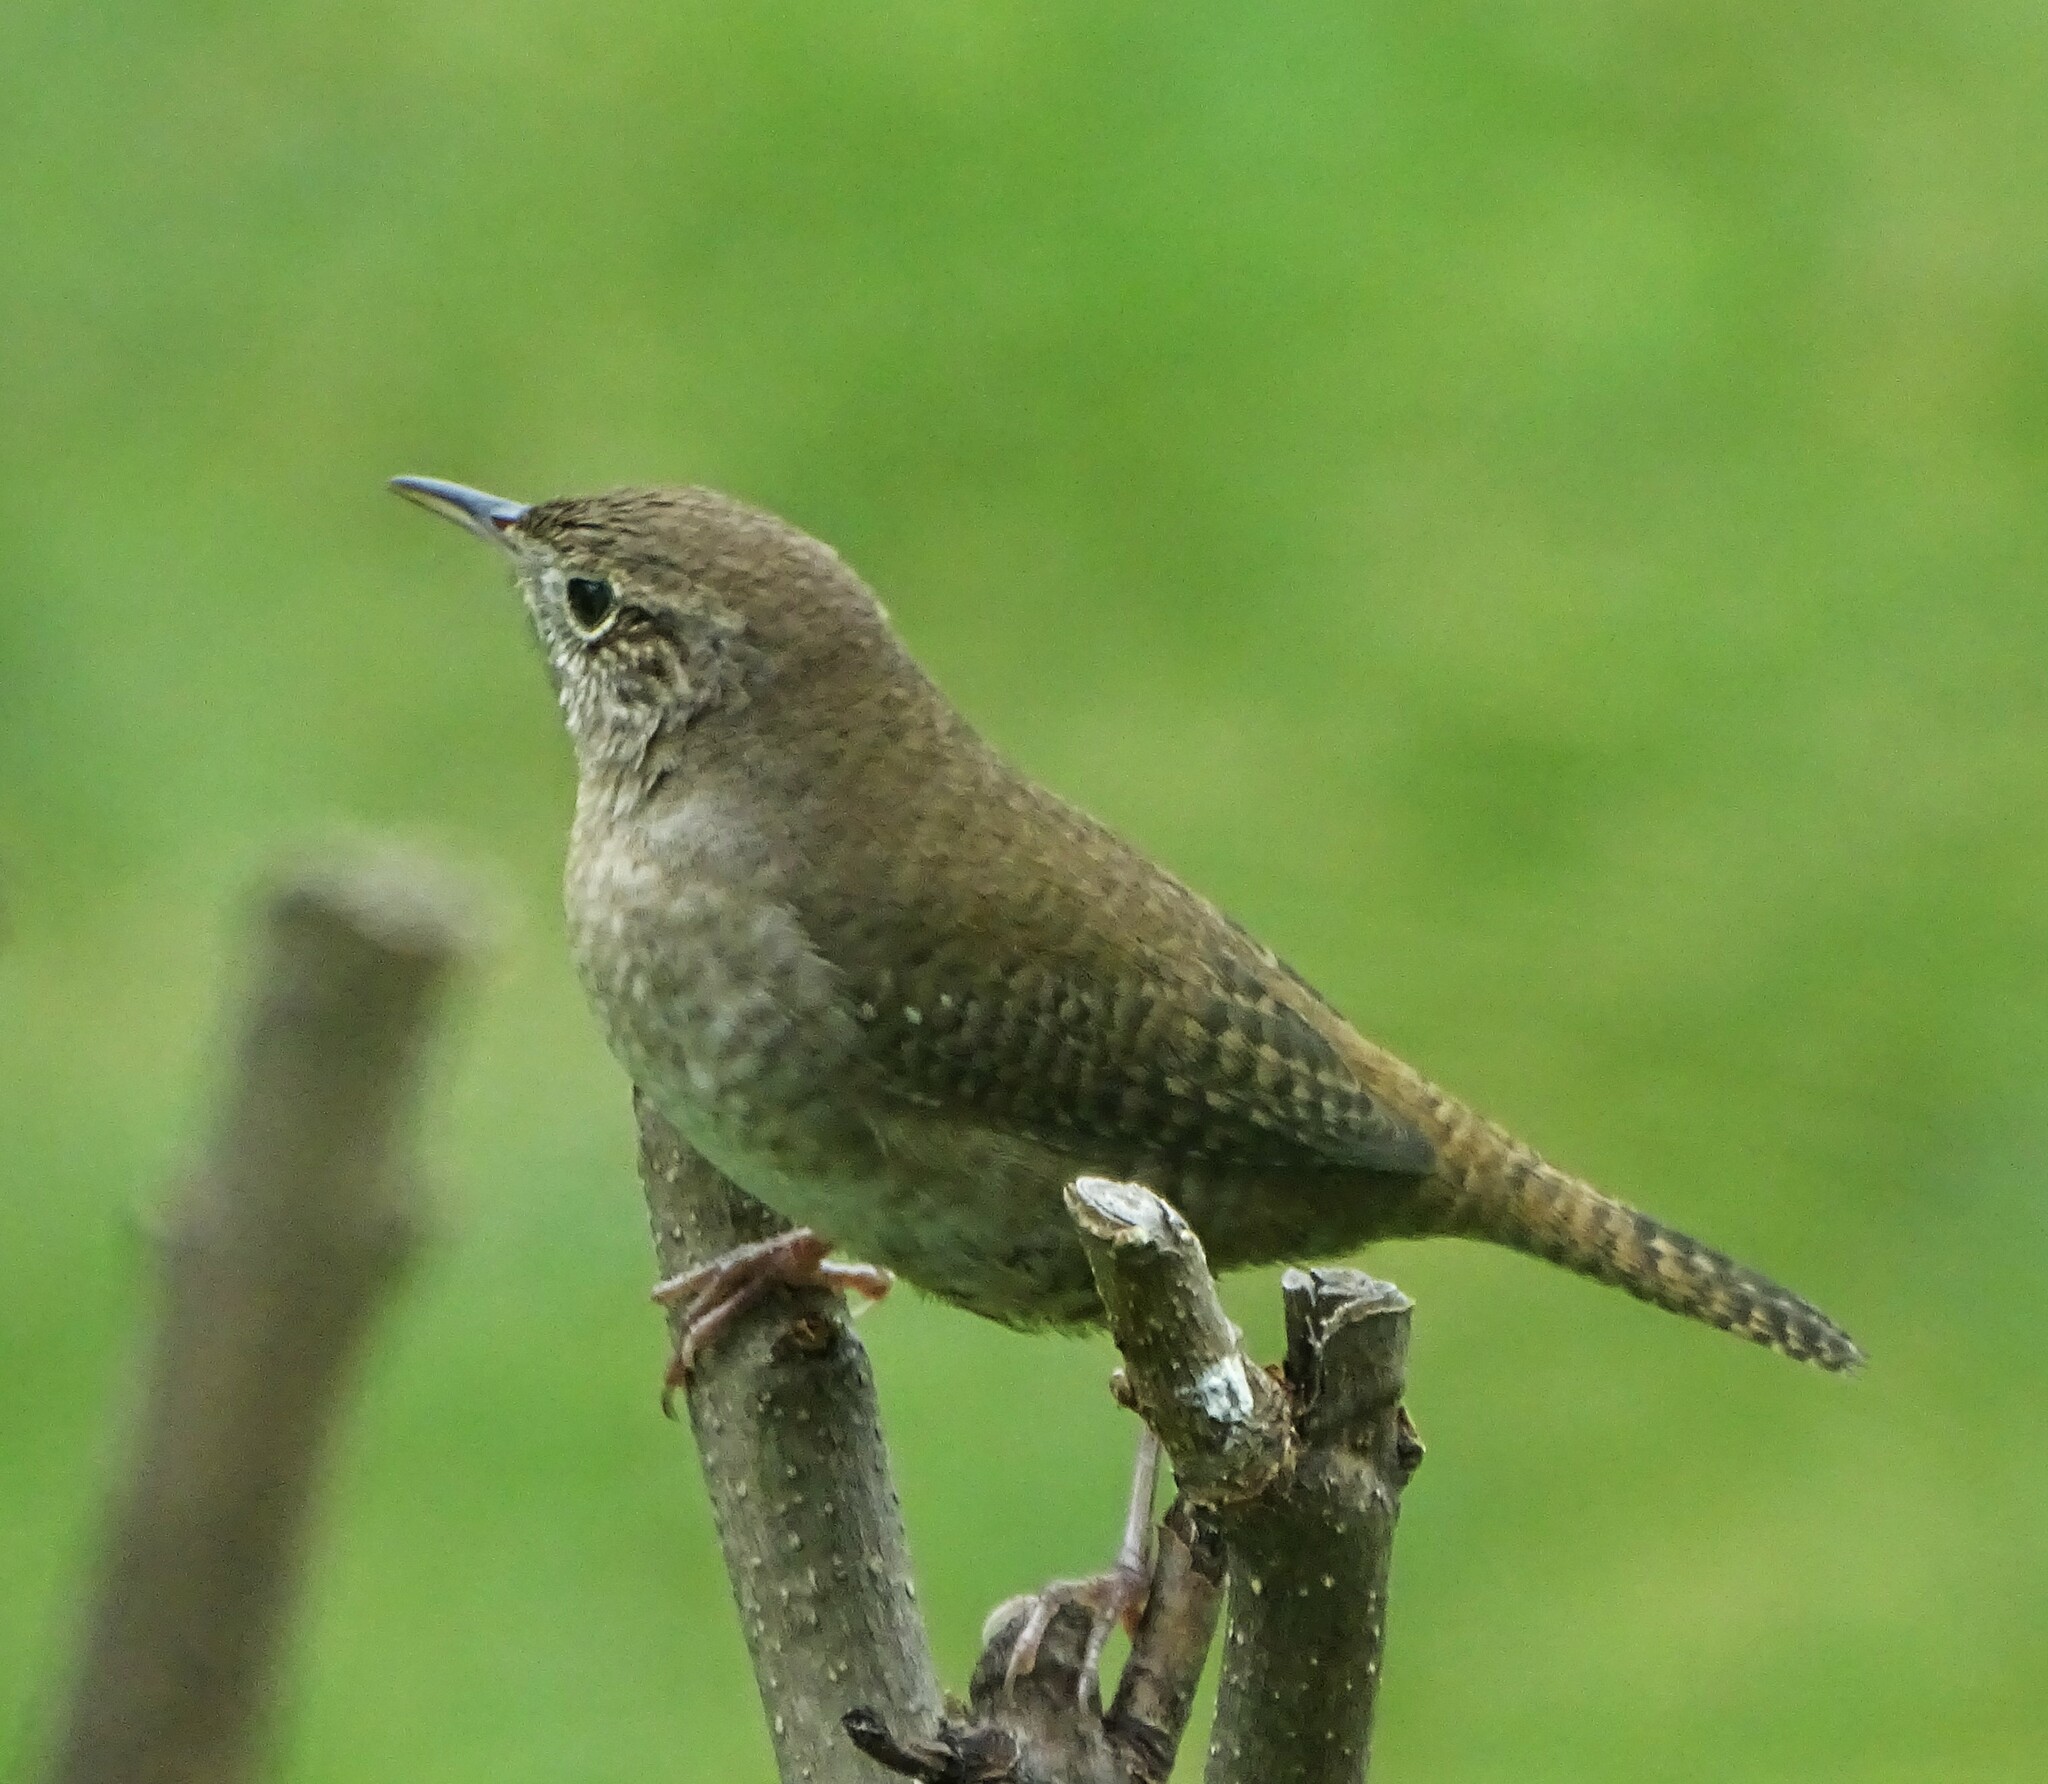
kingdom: Animalia
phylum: Chordata
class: Aves
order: Passeriformes
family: Troglodytidae
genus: Troglodytes
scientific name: Troglodytes aedon
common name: House wren
